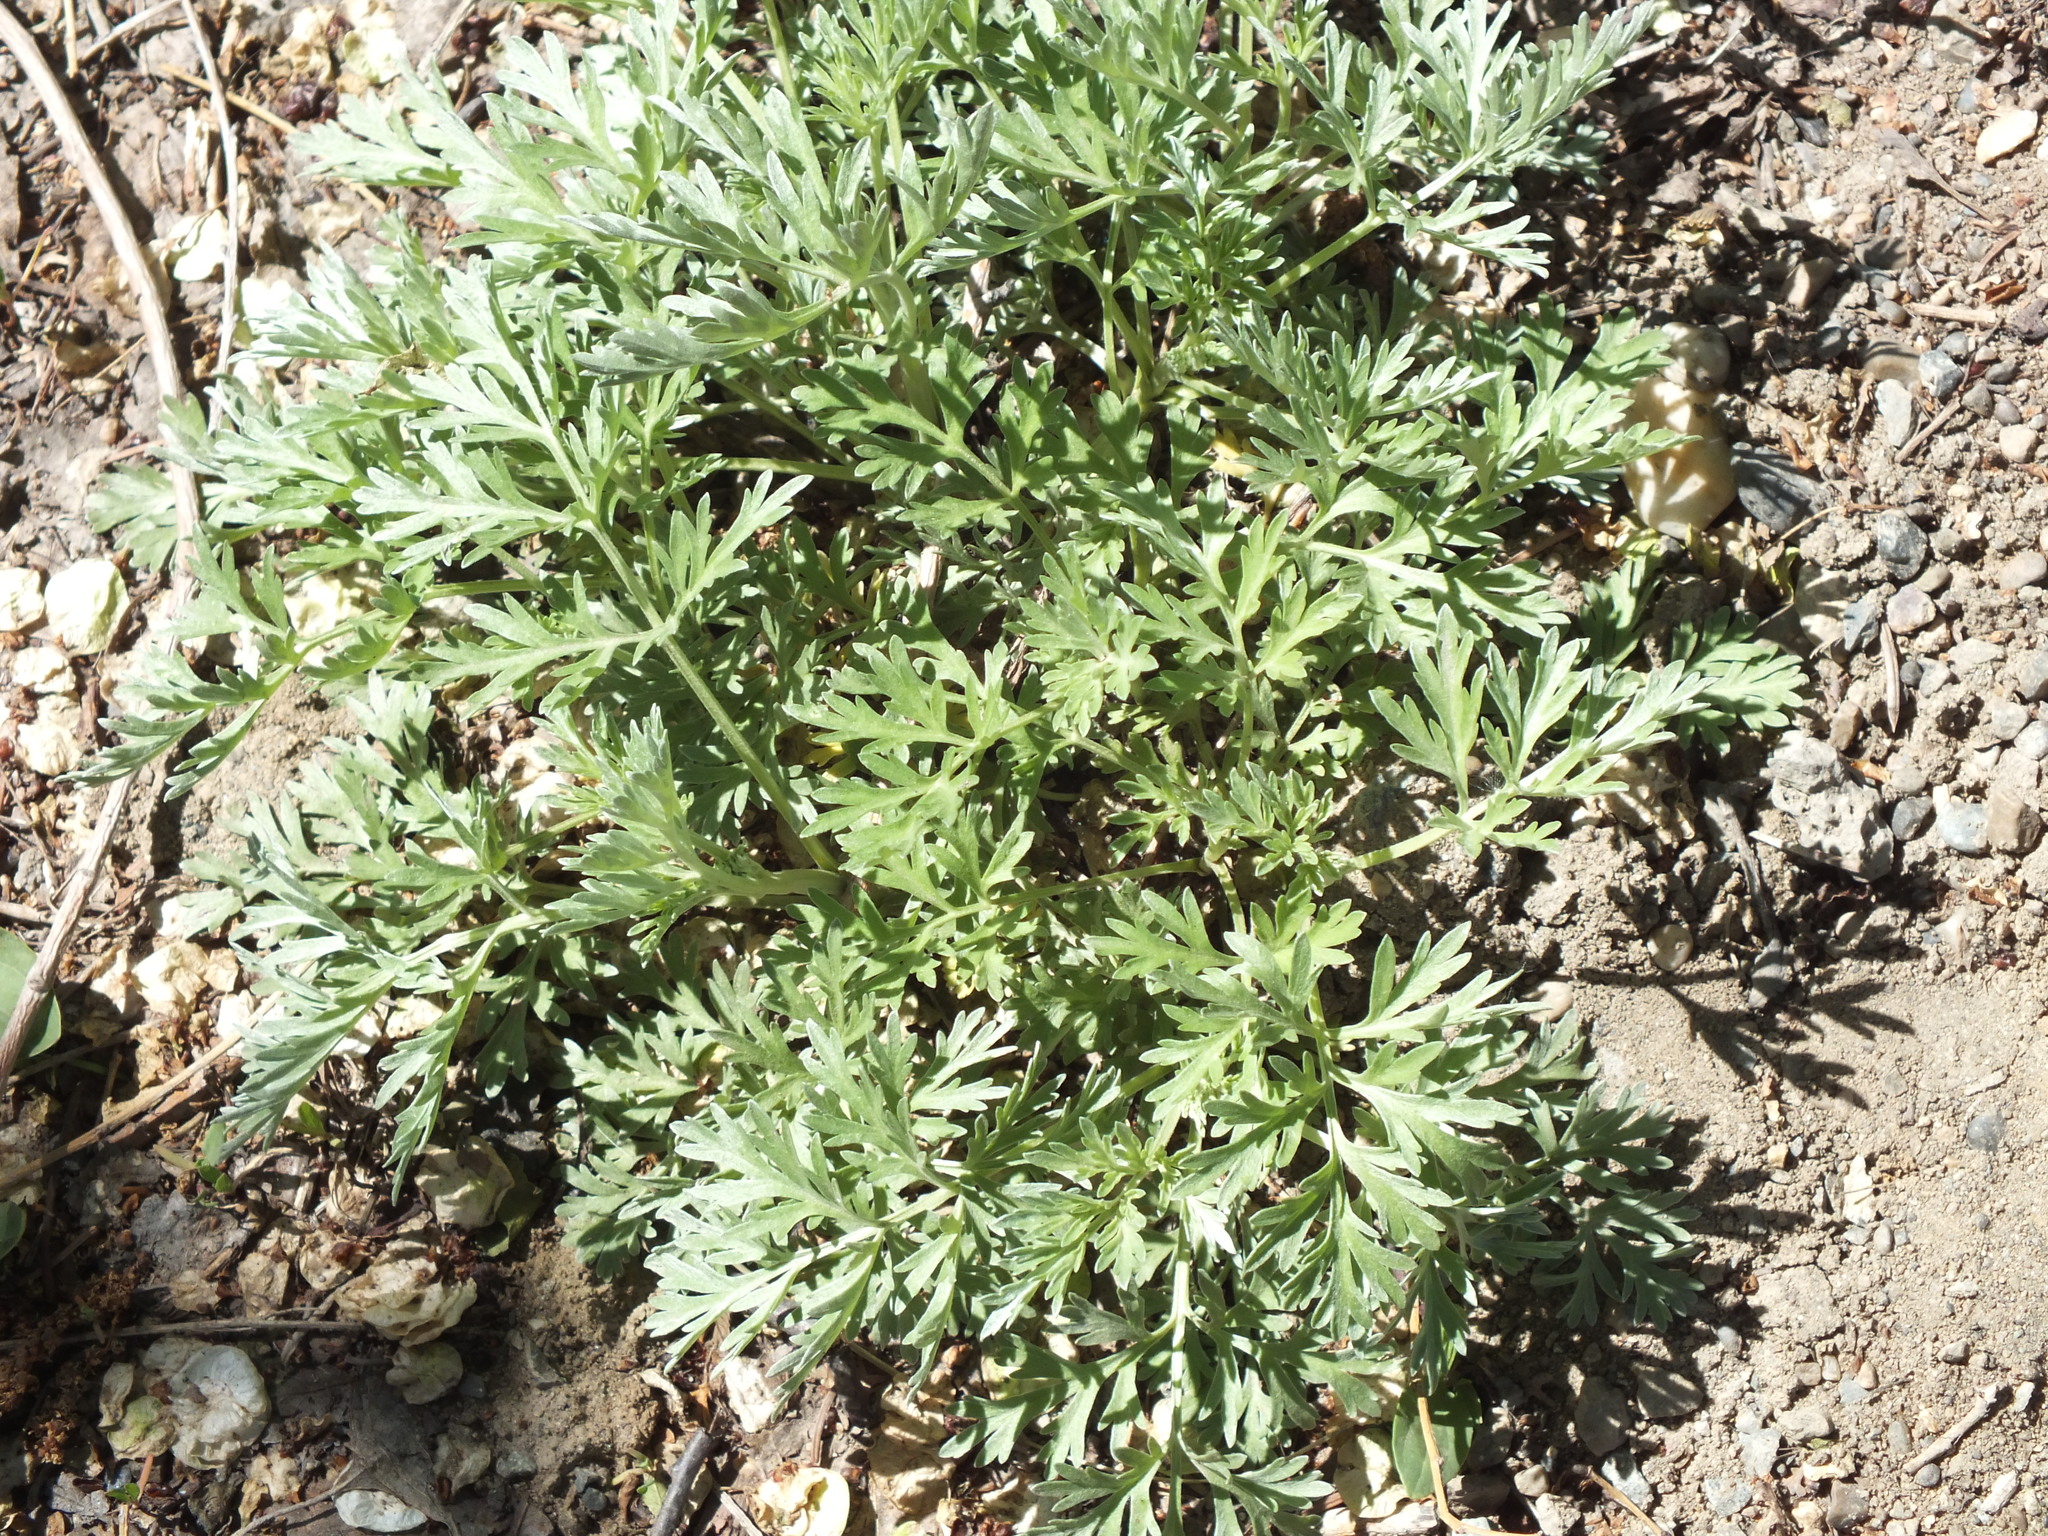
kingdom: Plantae
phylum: Tracheophyta
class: Magnoliopsida
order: Asterales
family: Asteraceae
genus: Artemisia
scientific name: Artemisia absinthium
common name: Wormwood
